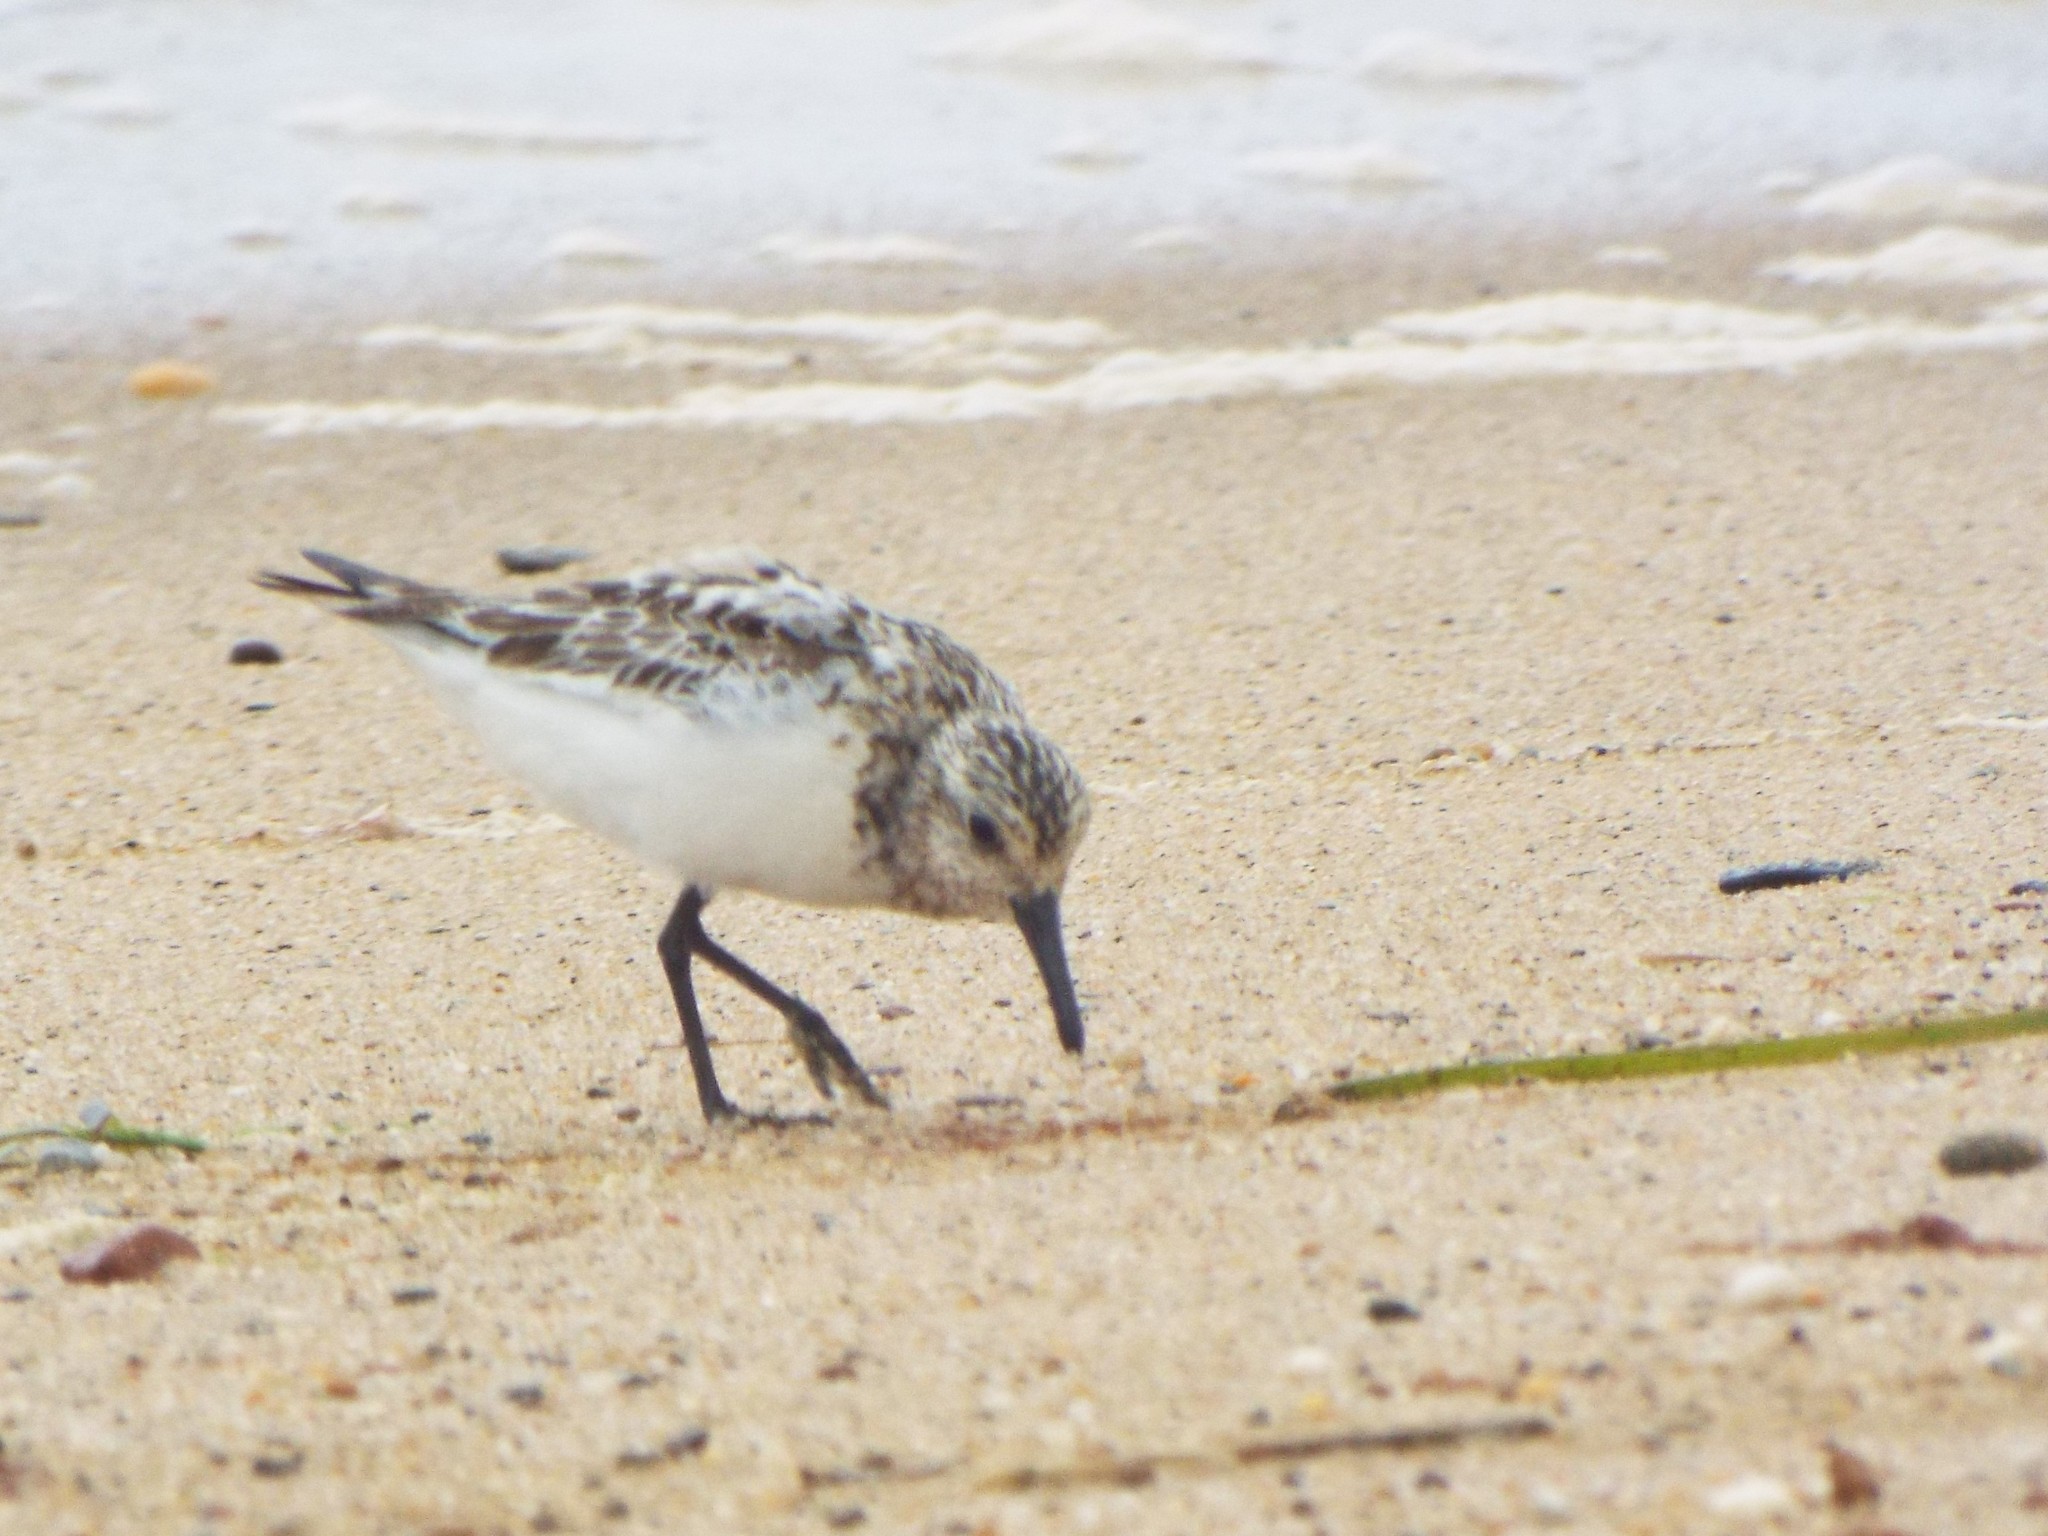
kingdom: Animalia
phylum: Chordata
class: Aves
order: Charadriiformes
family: Scolopacidae
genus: Calidris
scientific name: Calidris alba
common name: Sanderling
